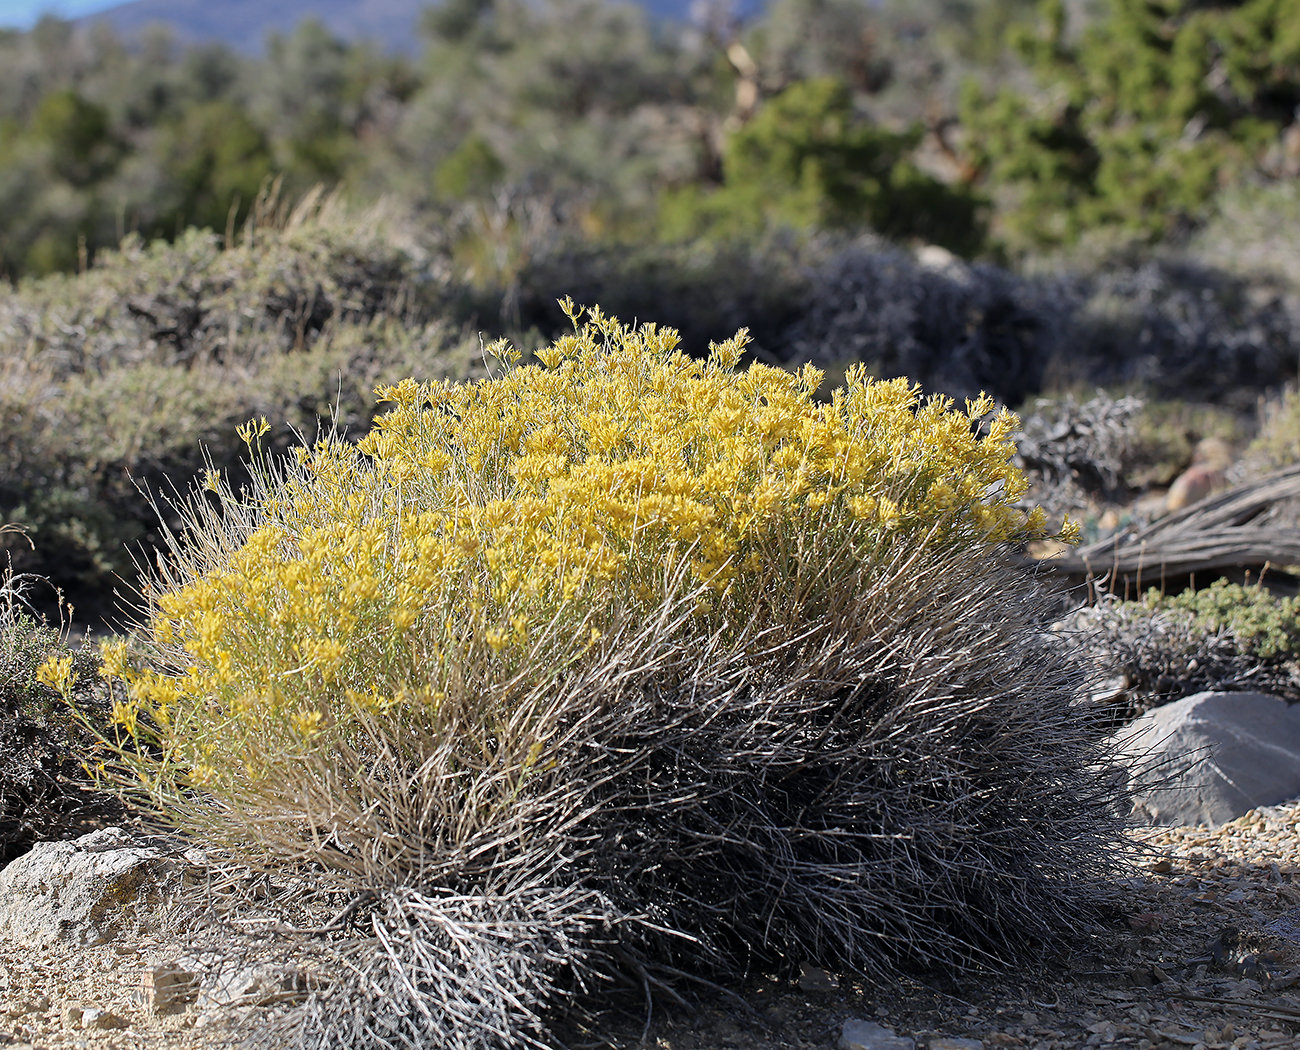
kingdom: Plantae
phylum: Tracheophyta
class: Magnoliopsida
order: Asterales
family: Asteraceae
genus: Ericameria
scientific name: Ericameria nauseosa
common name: Rubber rabbitbrush
